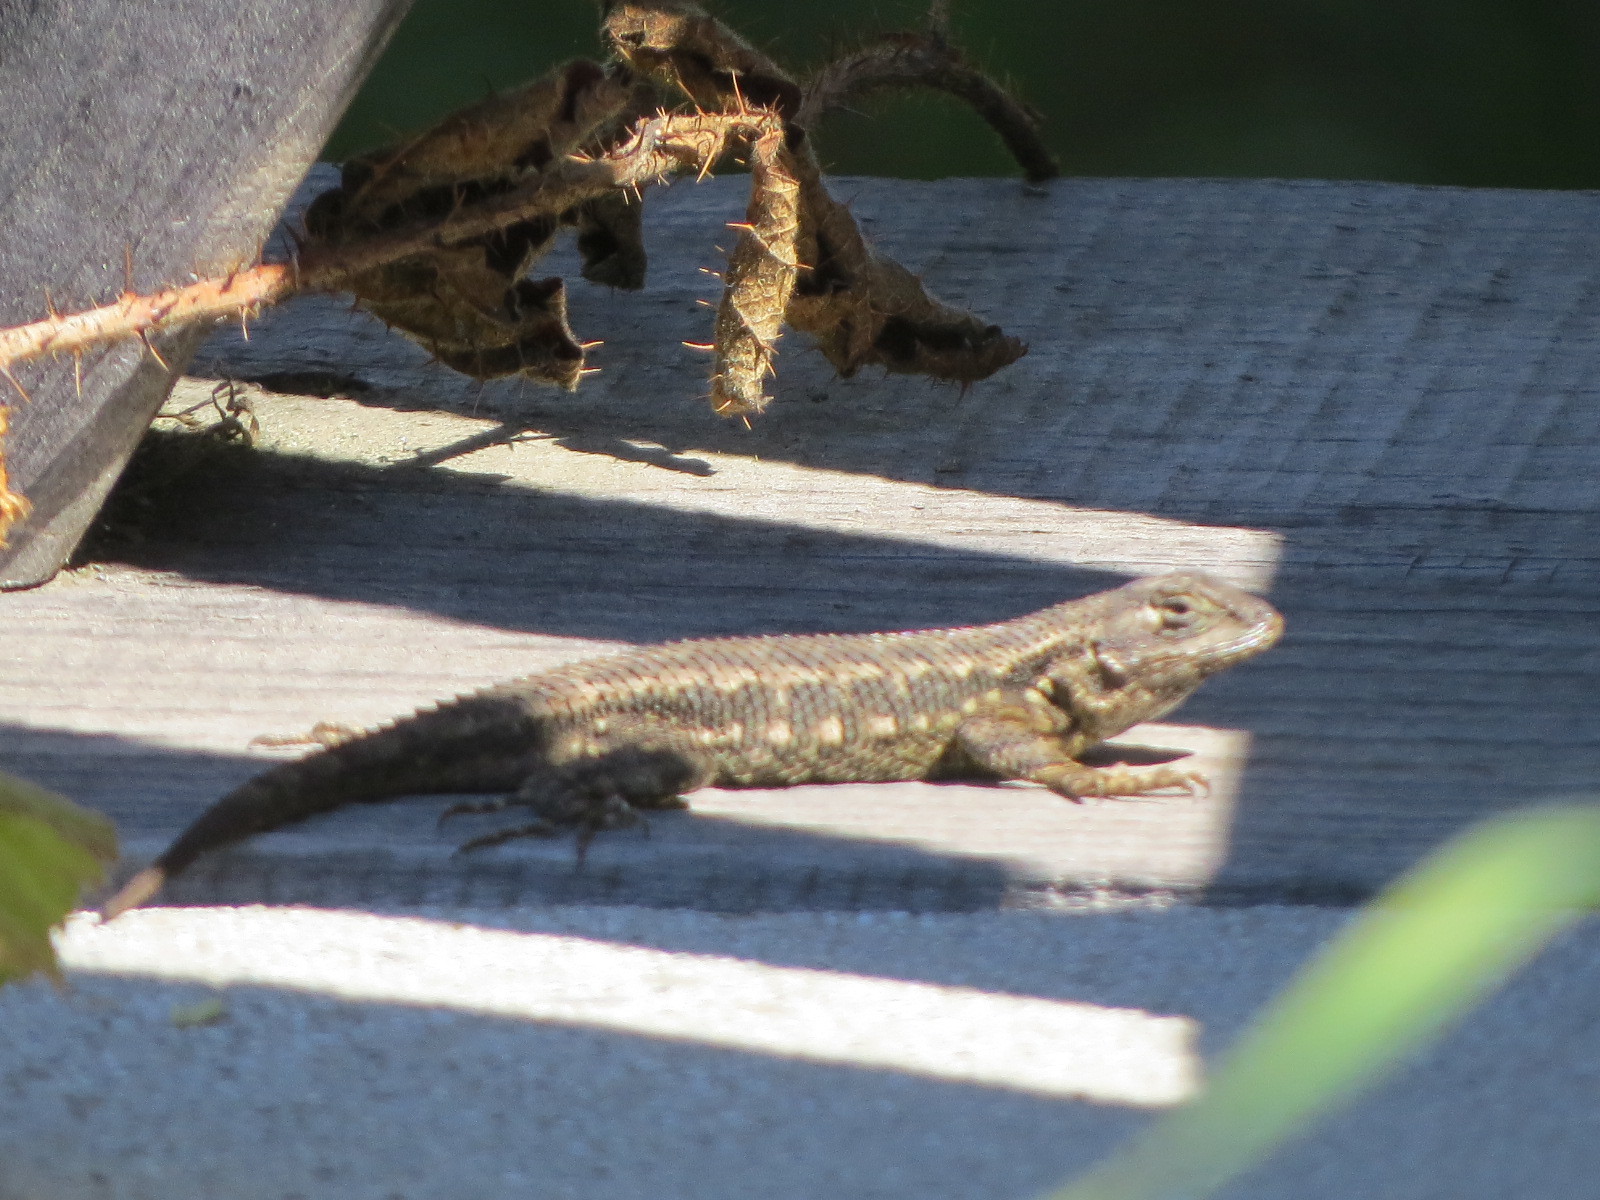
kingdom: Animalia
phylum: Chordata
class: Squamata
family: Phrynosomatidae
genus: Sceloporus
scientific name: Sceloporus occidentalis
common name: Western fence lizard
